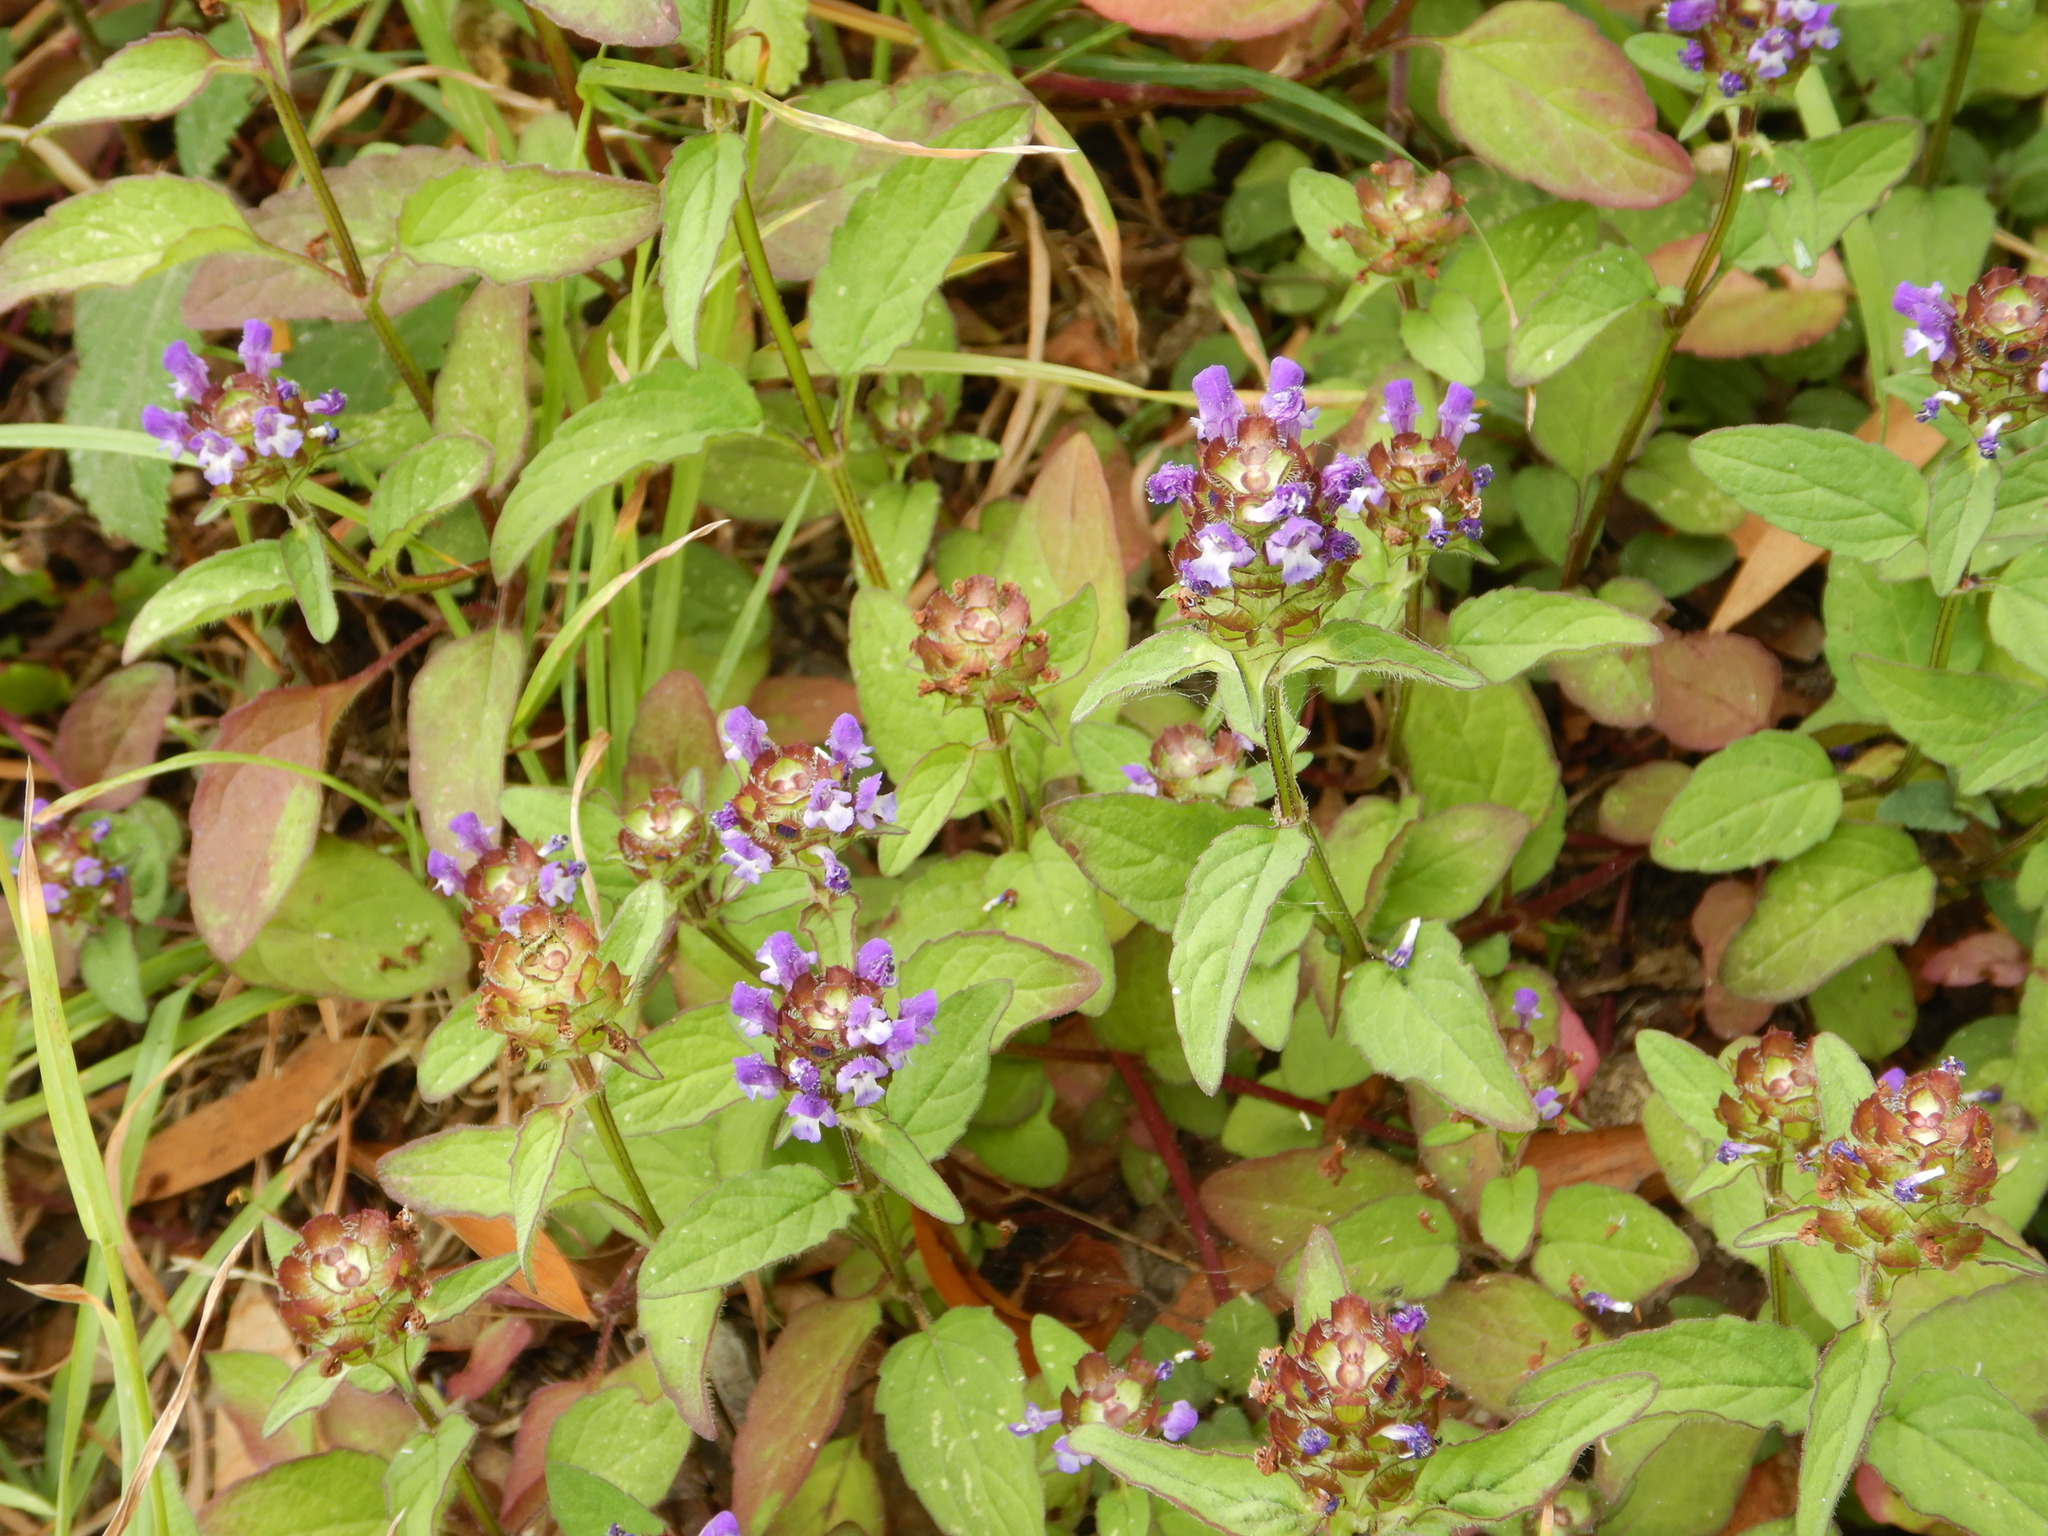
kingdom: Plantae
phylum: Tracheophyta
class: Magnoliopsida
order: Lamiales
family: Lamiaceae
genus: Prunella
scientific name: Prunella vulgaris
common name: Heal-all
